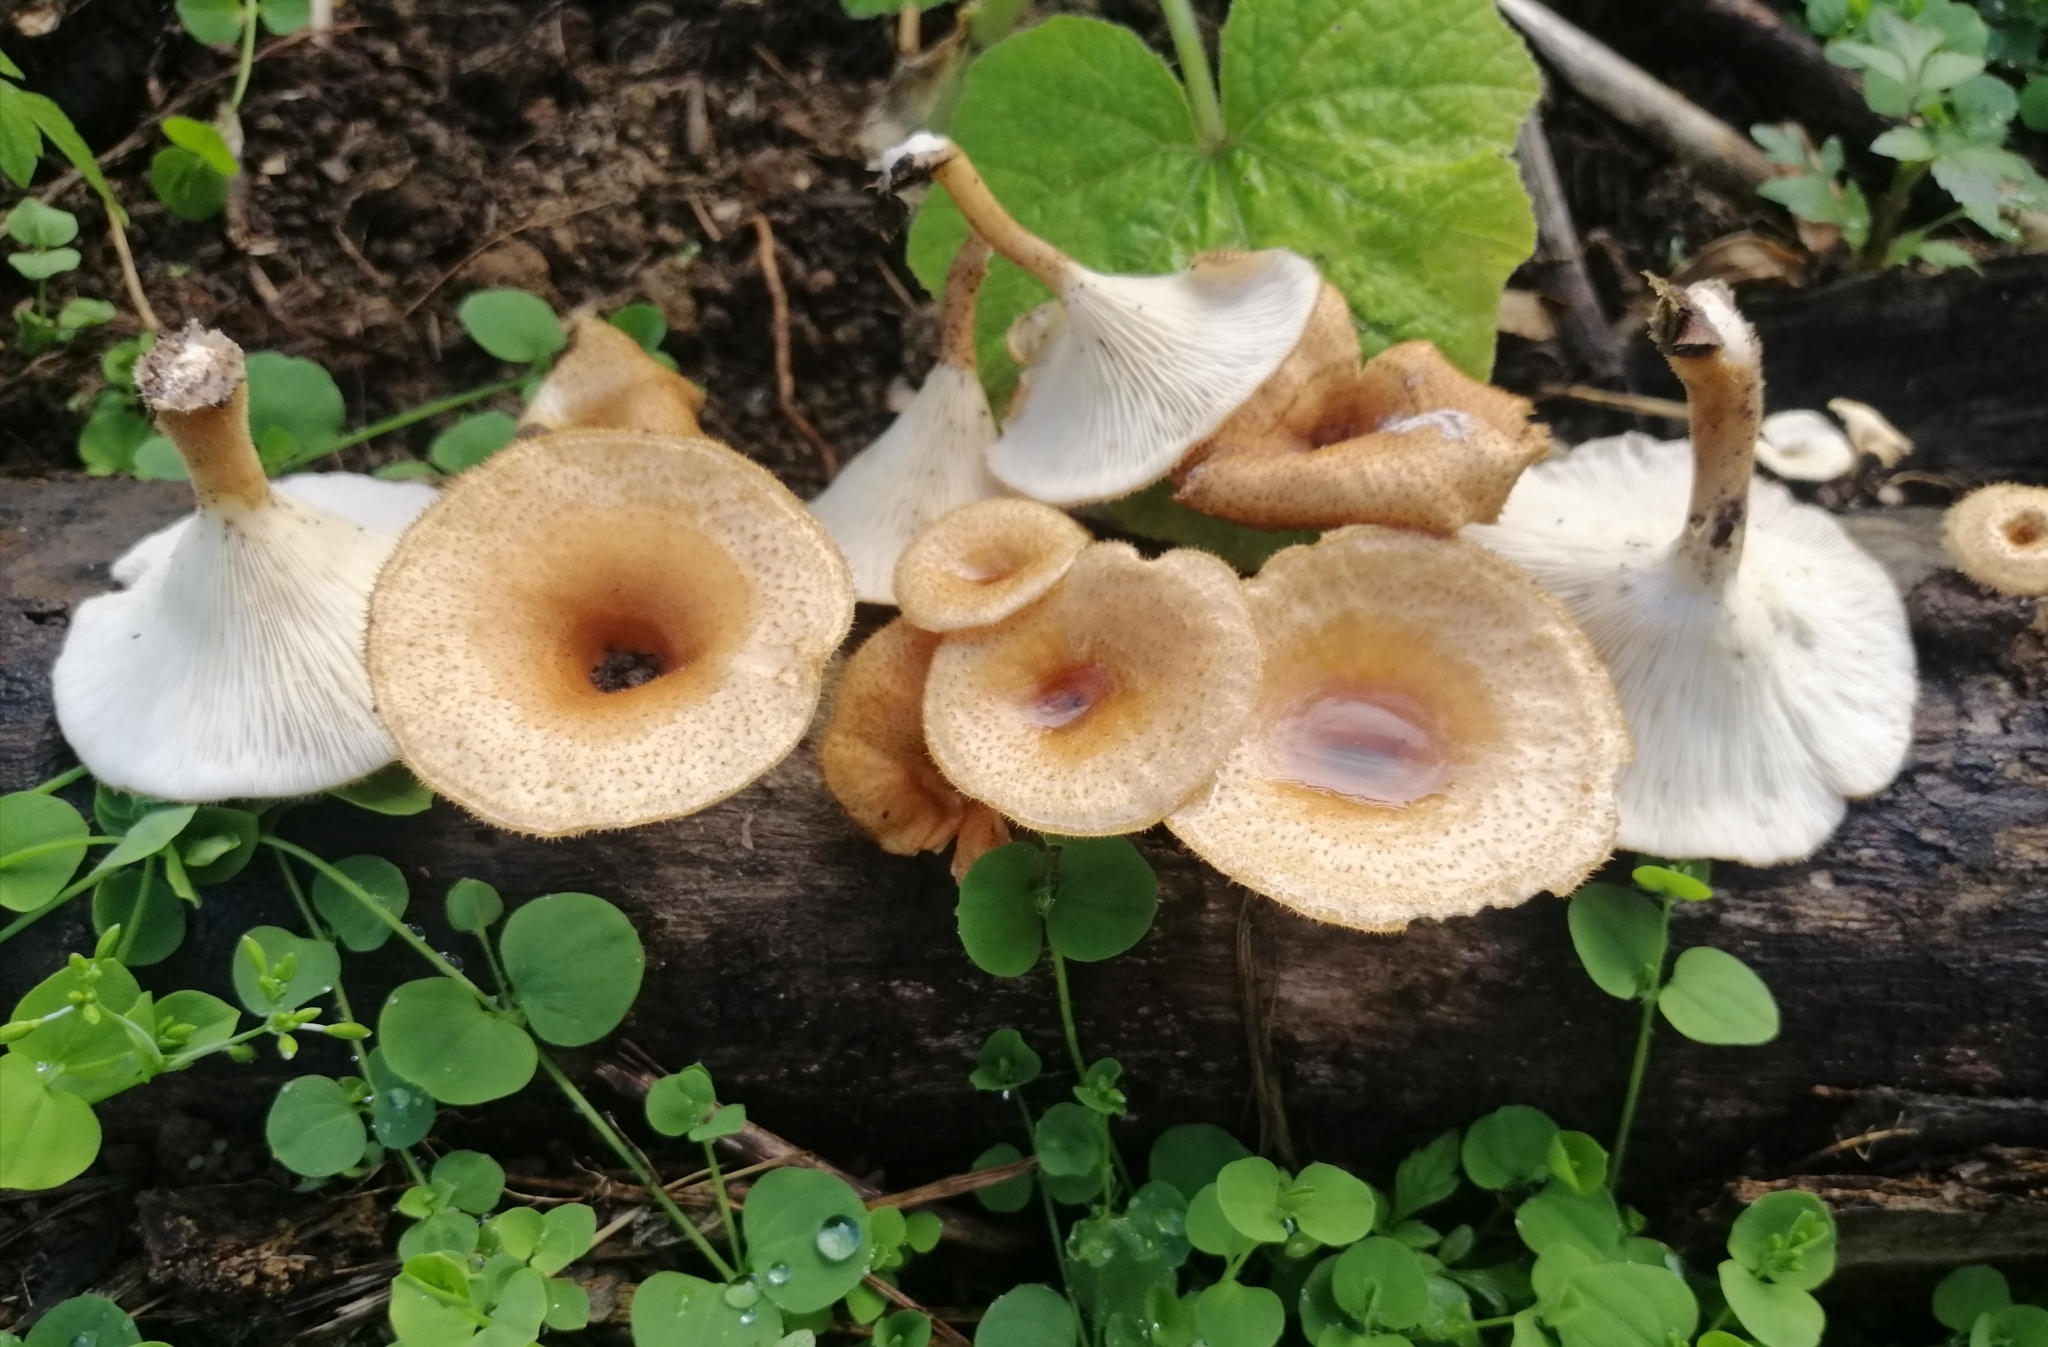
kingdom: Fungi
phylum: Basidiomycota
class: Agaricomycetes
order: Polyporales
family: Panaceae
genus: Panus
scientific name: Panus strigellus
